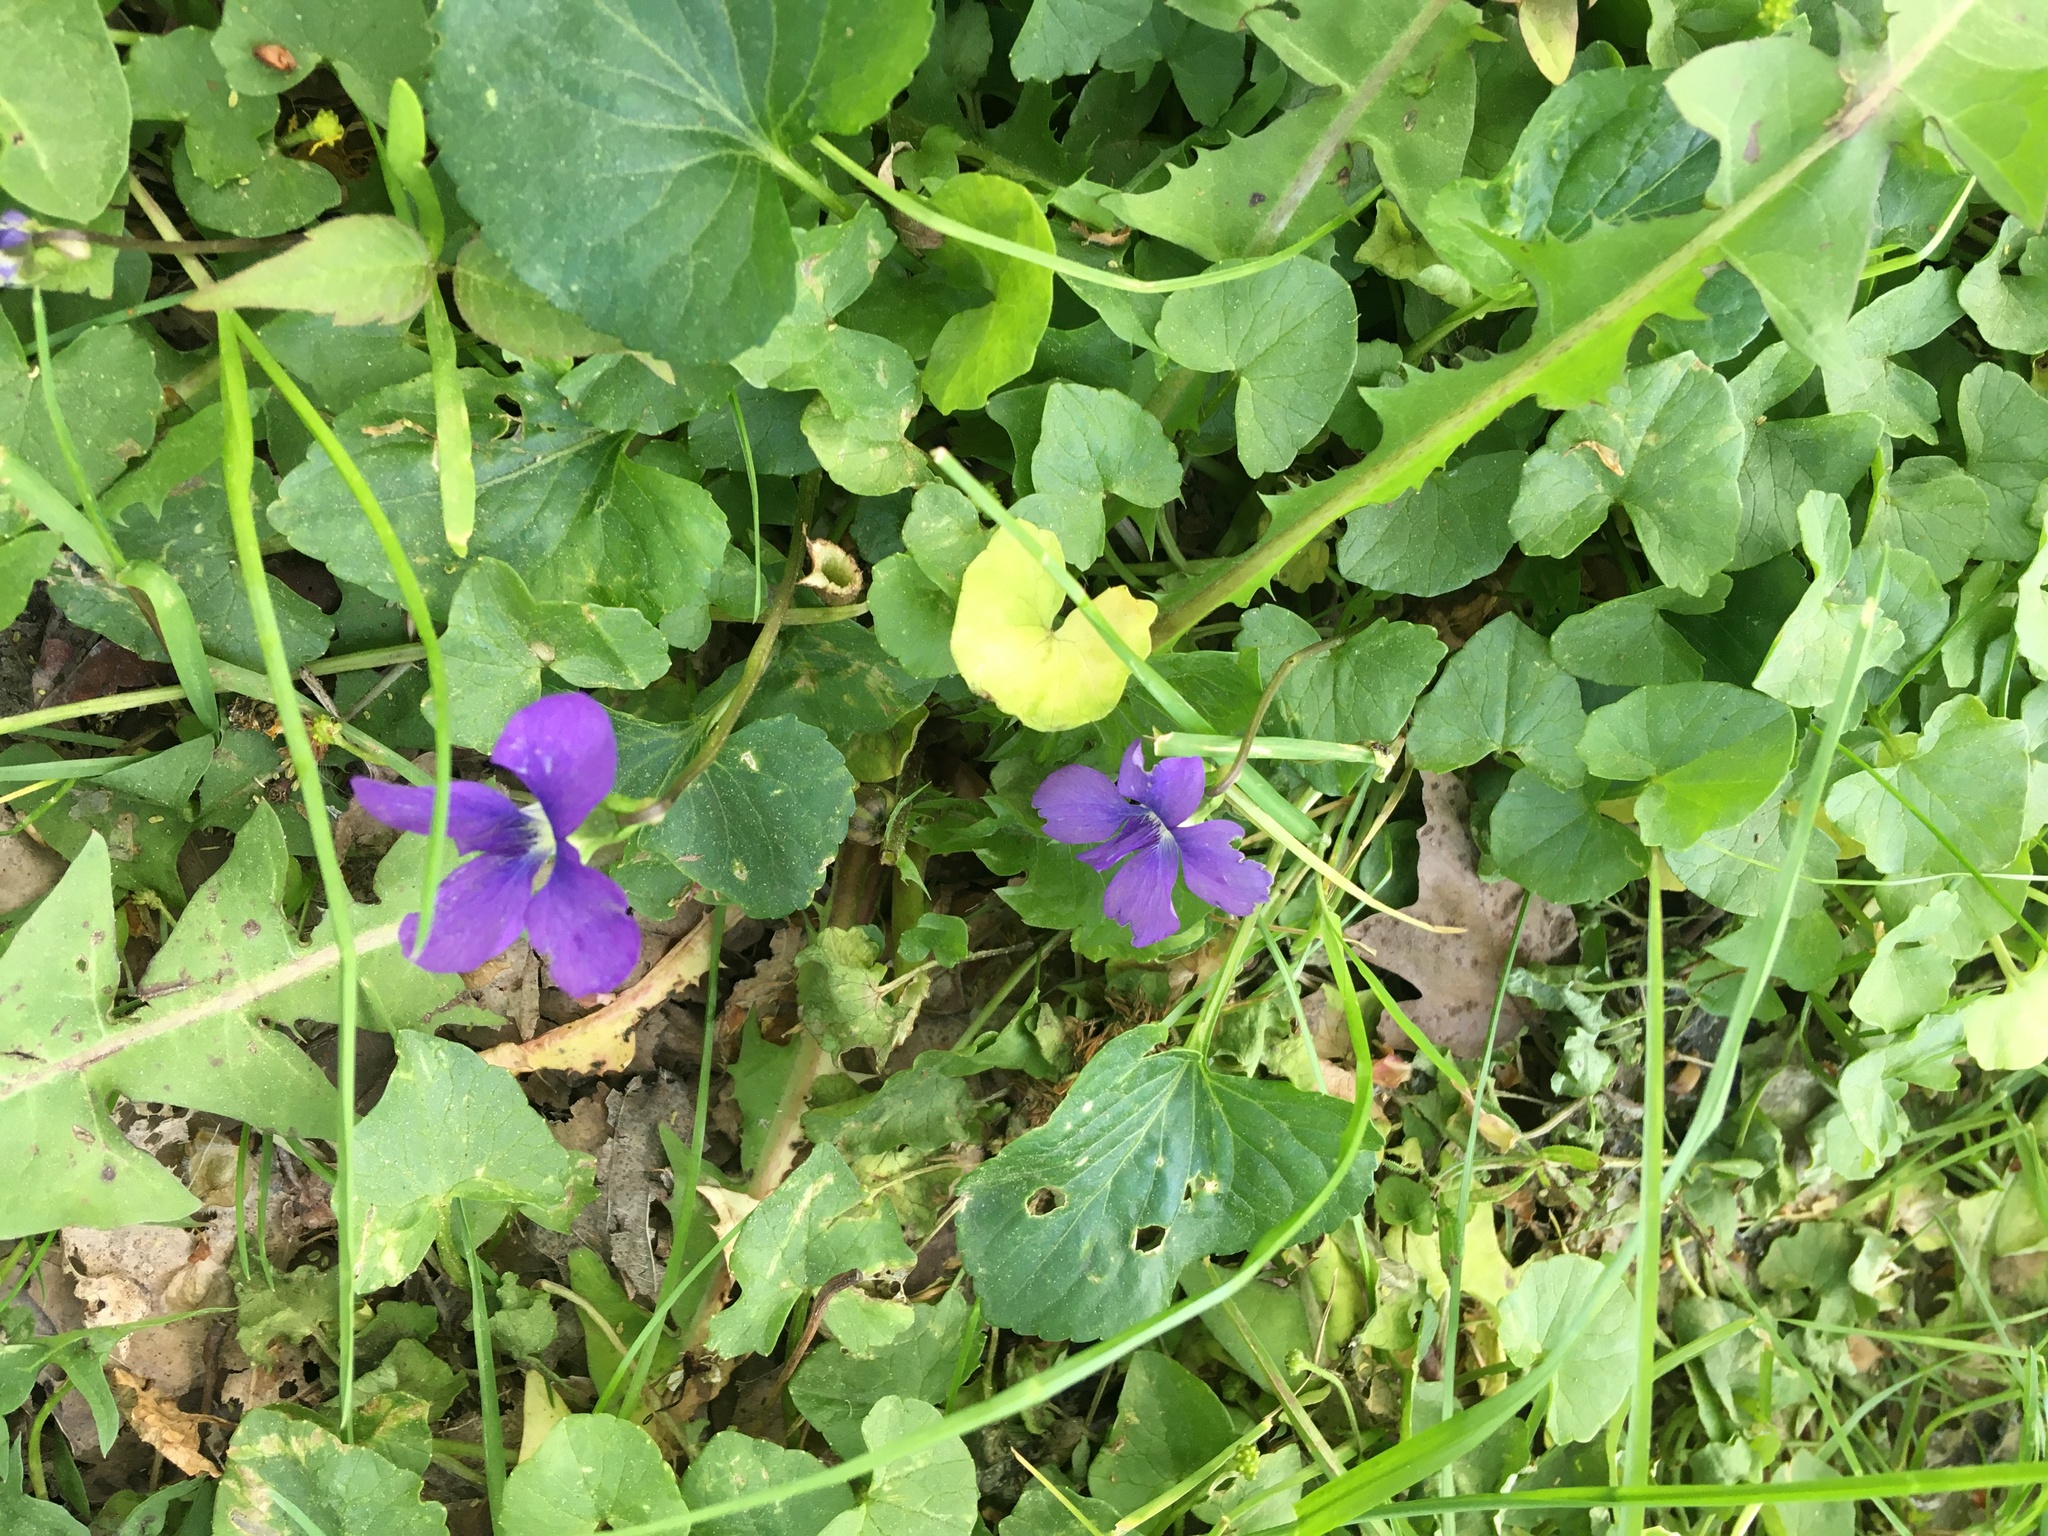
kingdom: Plantae
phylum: Tracheophyta
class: Magnoliopsida
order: Malpighiales
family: Violaceae
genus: Viola
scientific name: Viola sororia
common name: Dooryard violet
